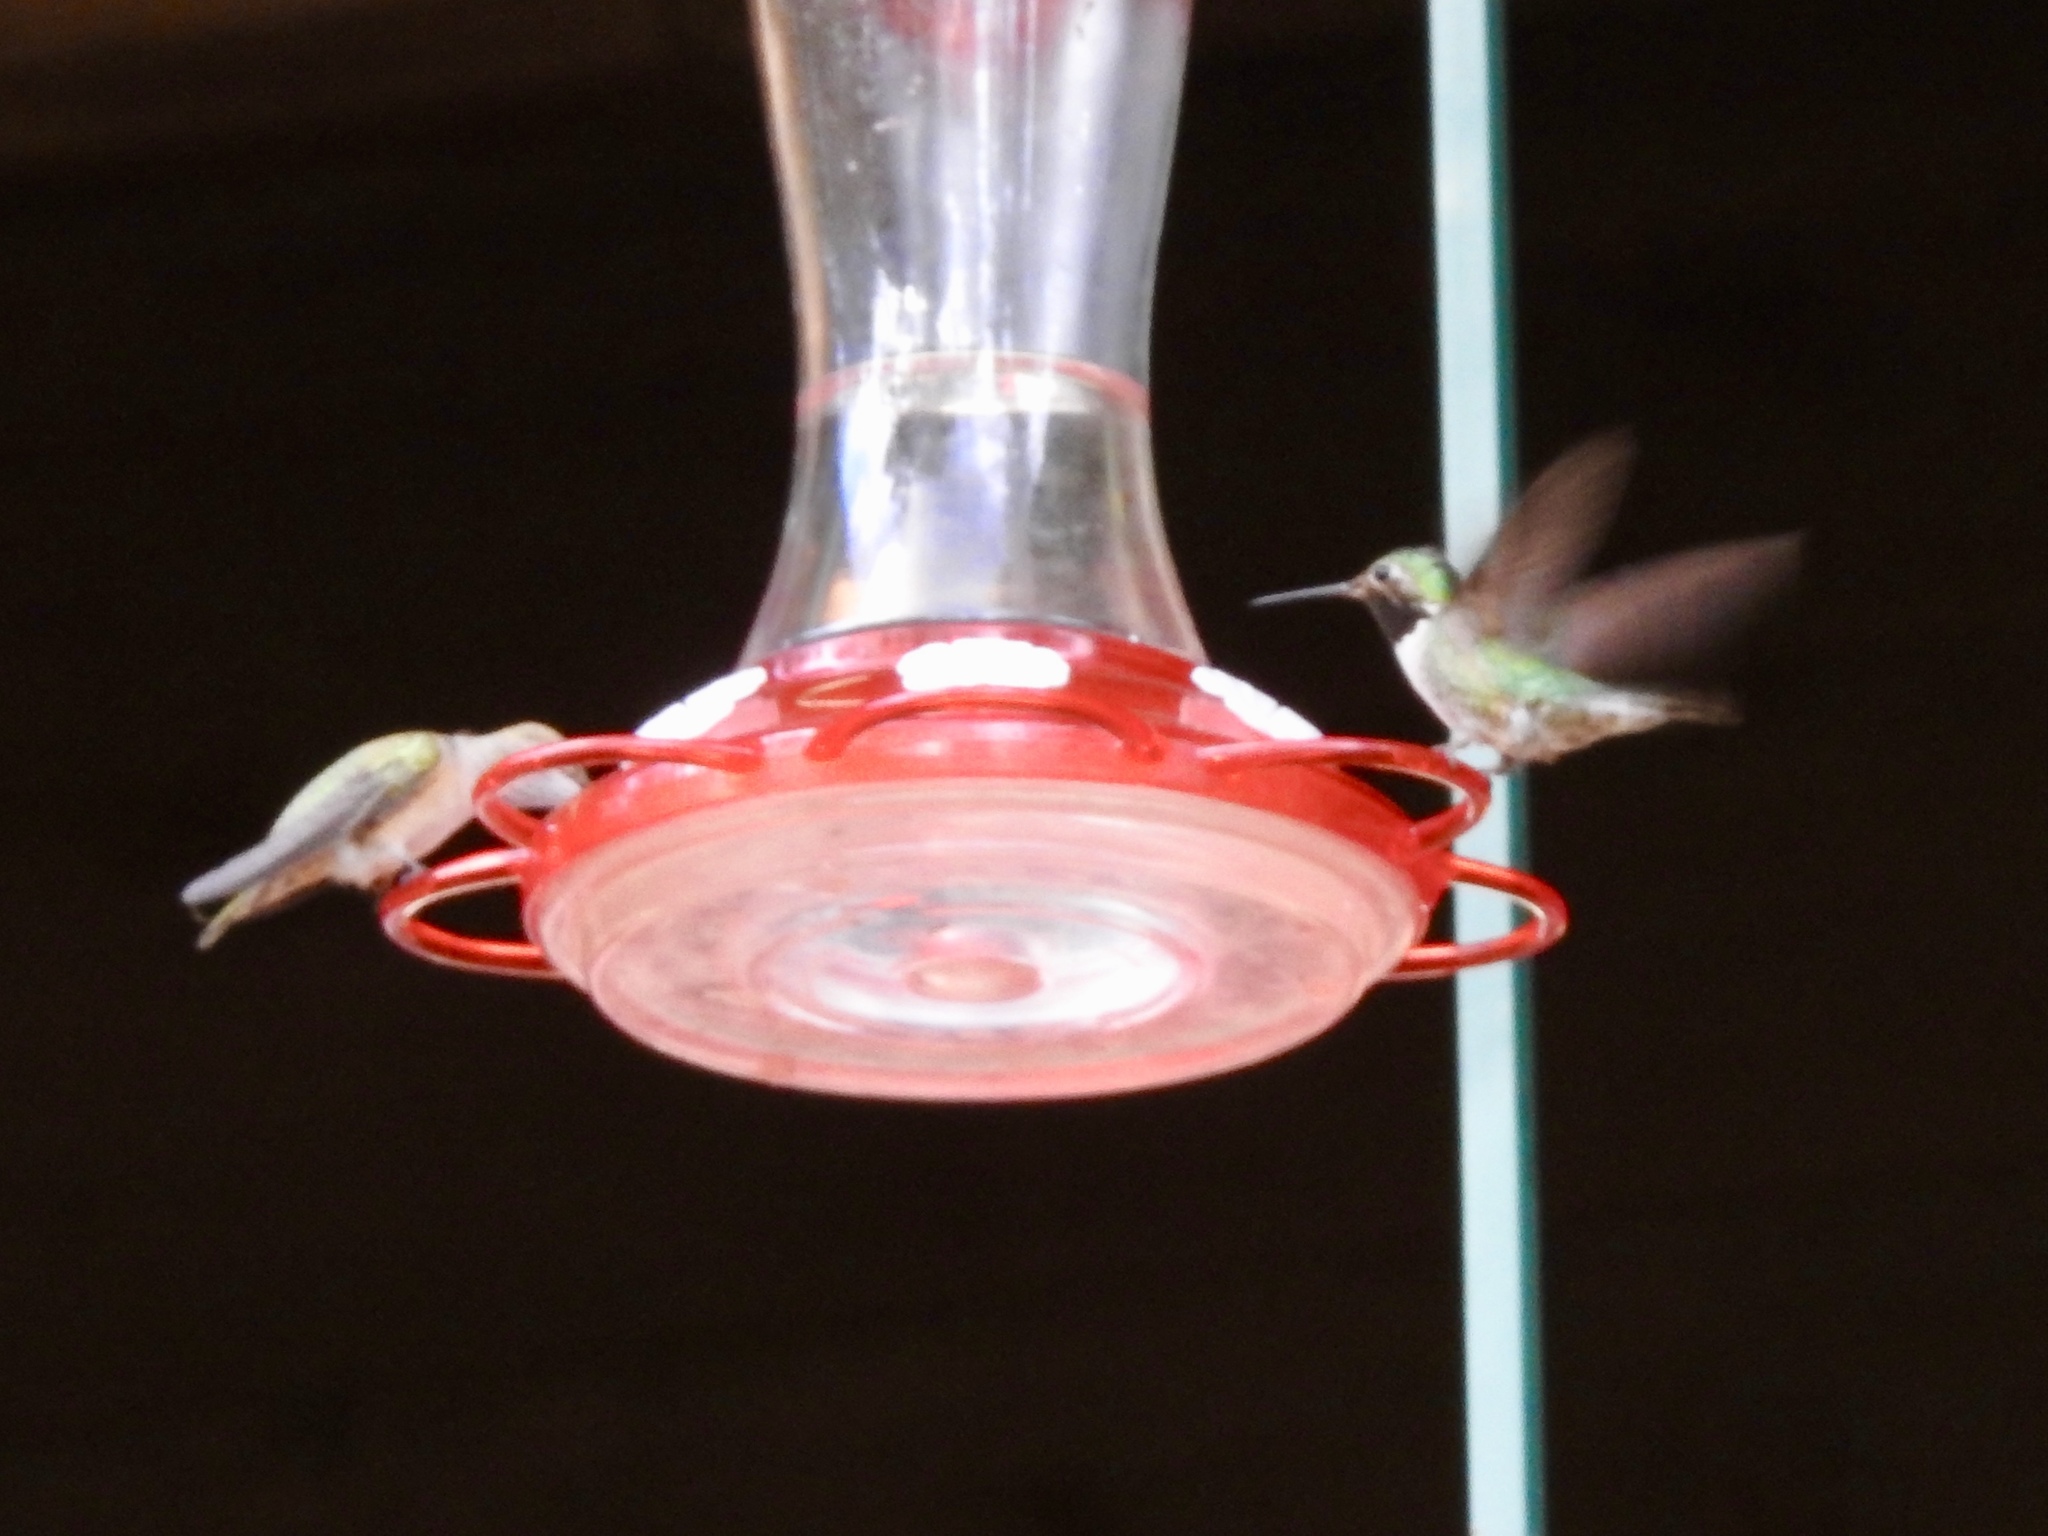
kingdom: Animalia
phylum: Chordata
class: Aves
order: Apodiformes
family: Trochilidae
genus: Selasphorus
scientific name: Selasphorus platycercus
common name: Broad-tailed hummingbird
